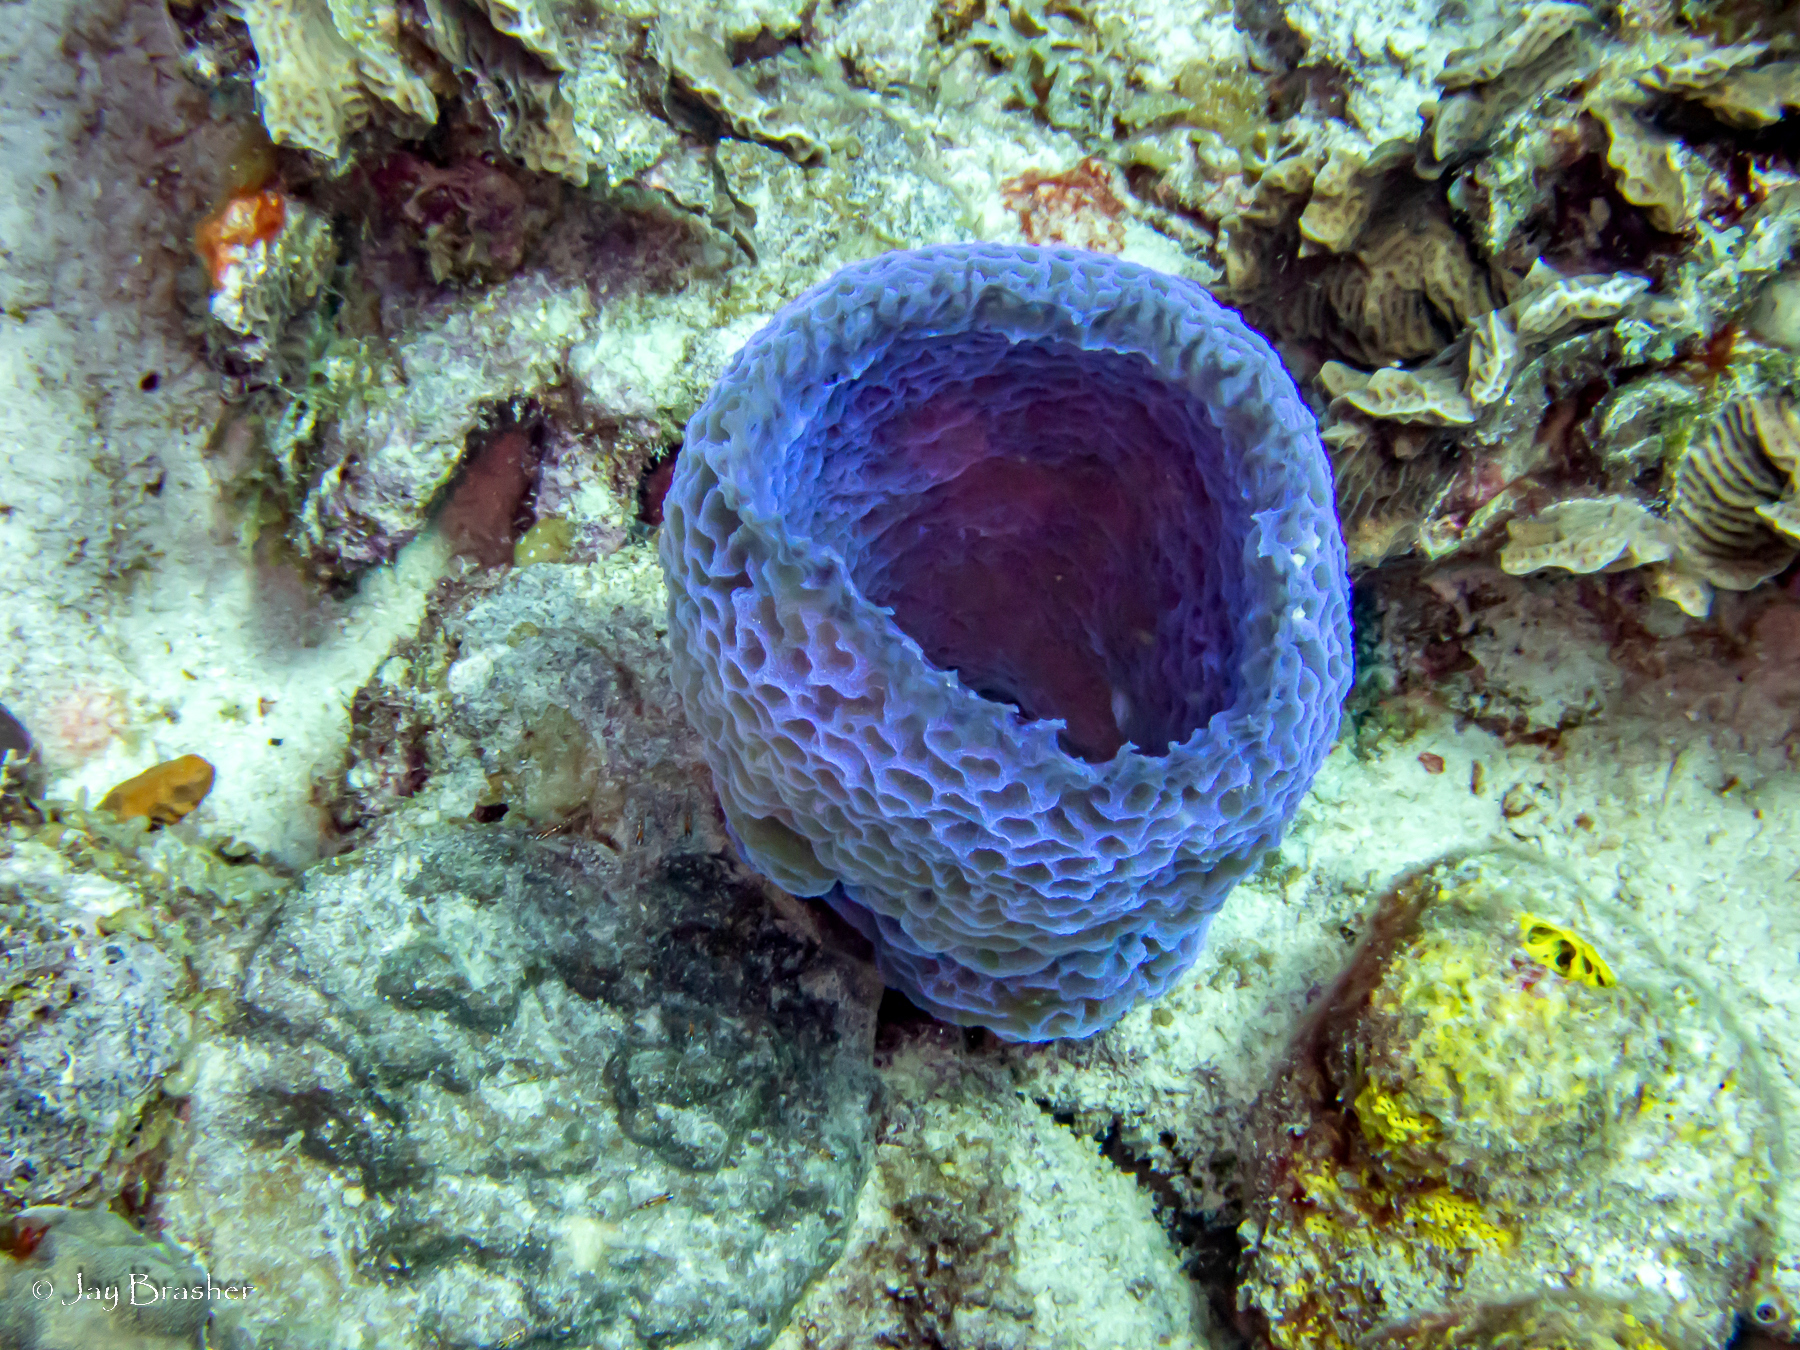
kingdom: Animalia
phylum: Cnidaria
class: Anthozoa
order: Scleractinia
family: Agariciidae
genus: Agaricia
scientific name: Agaricia agaricites
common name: Lettuce coral
